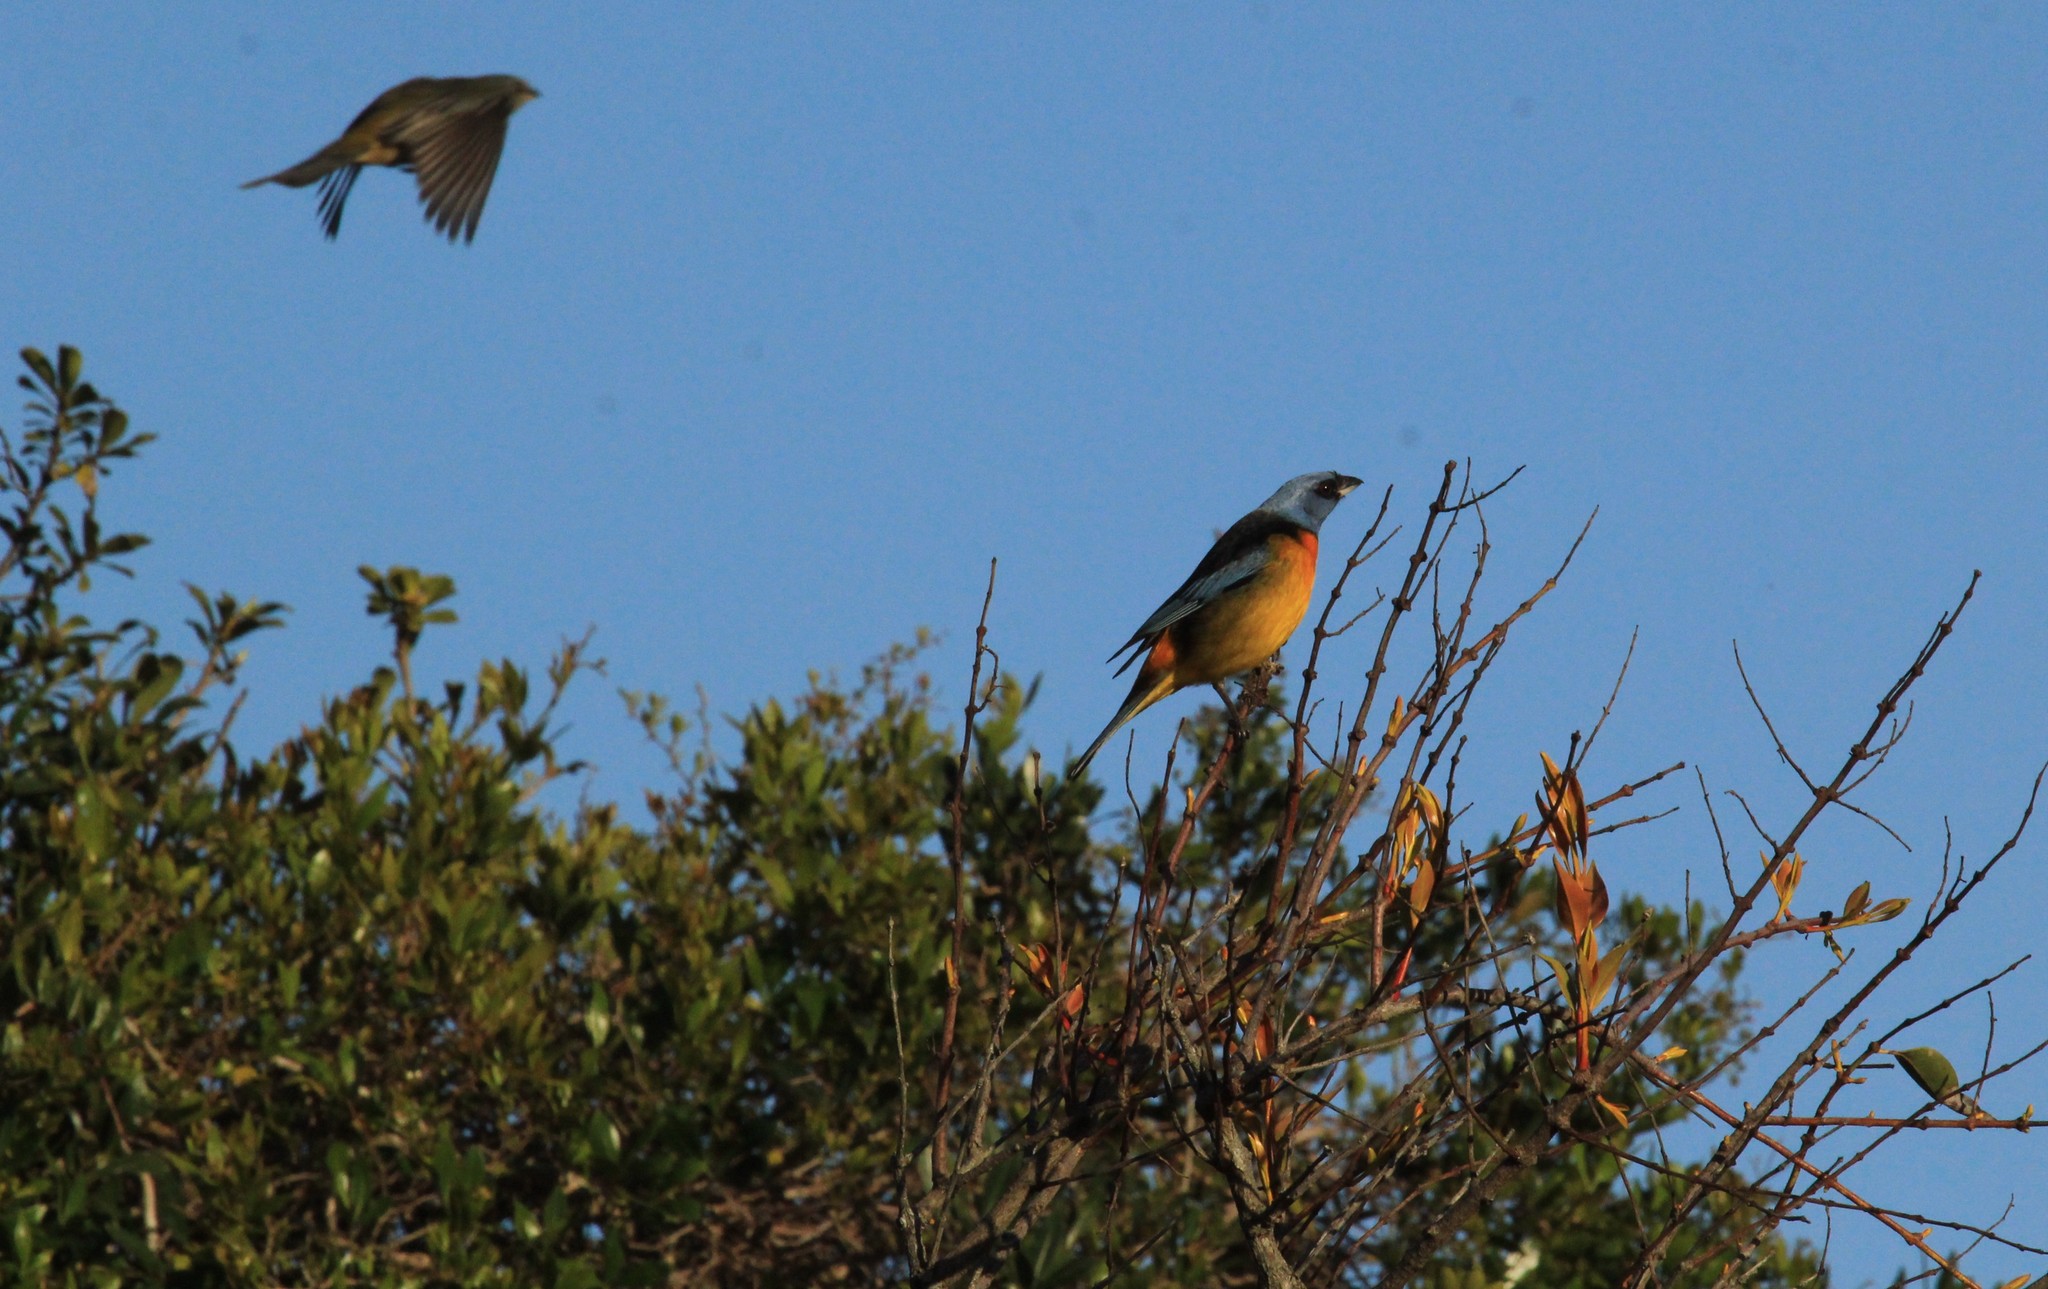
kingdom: Animalia
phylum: Chordata
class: Aves
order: Passeriformes
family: Thraupidae
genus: Rauenia
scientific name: Rauenia bonariensis
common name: Blue-and-yellow tanager
